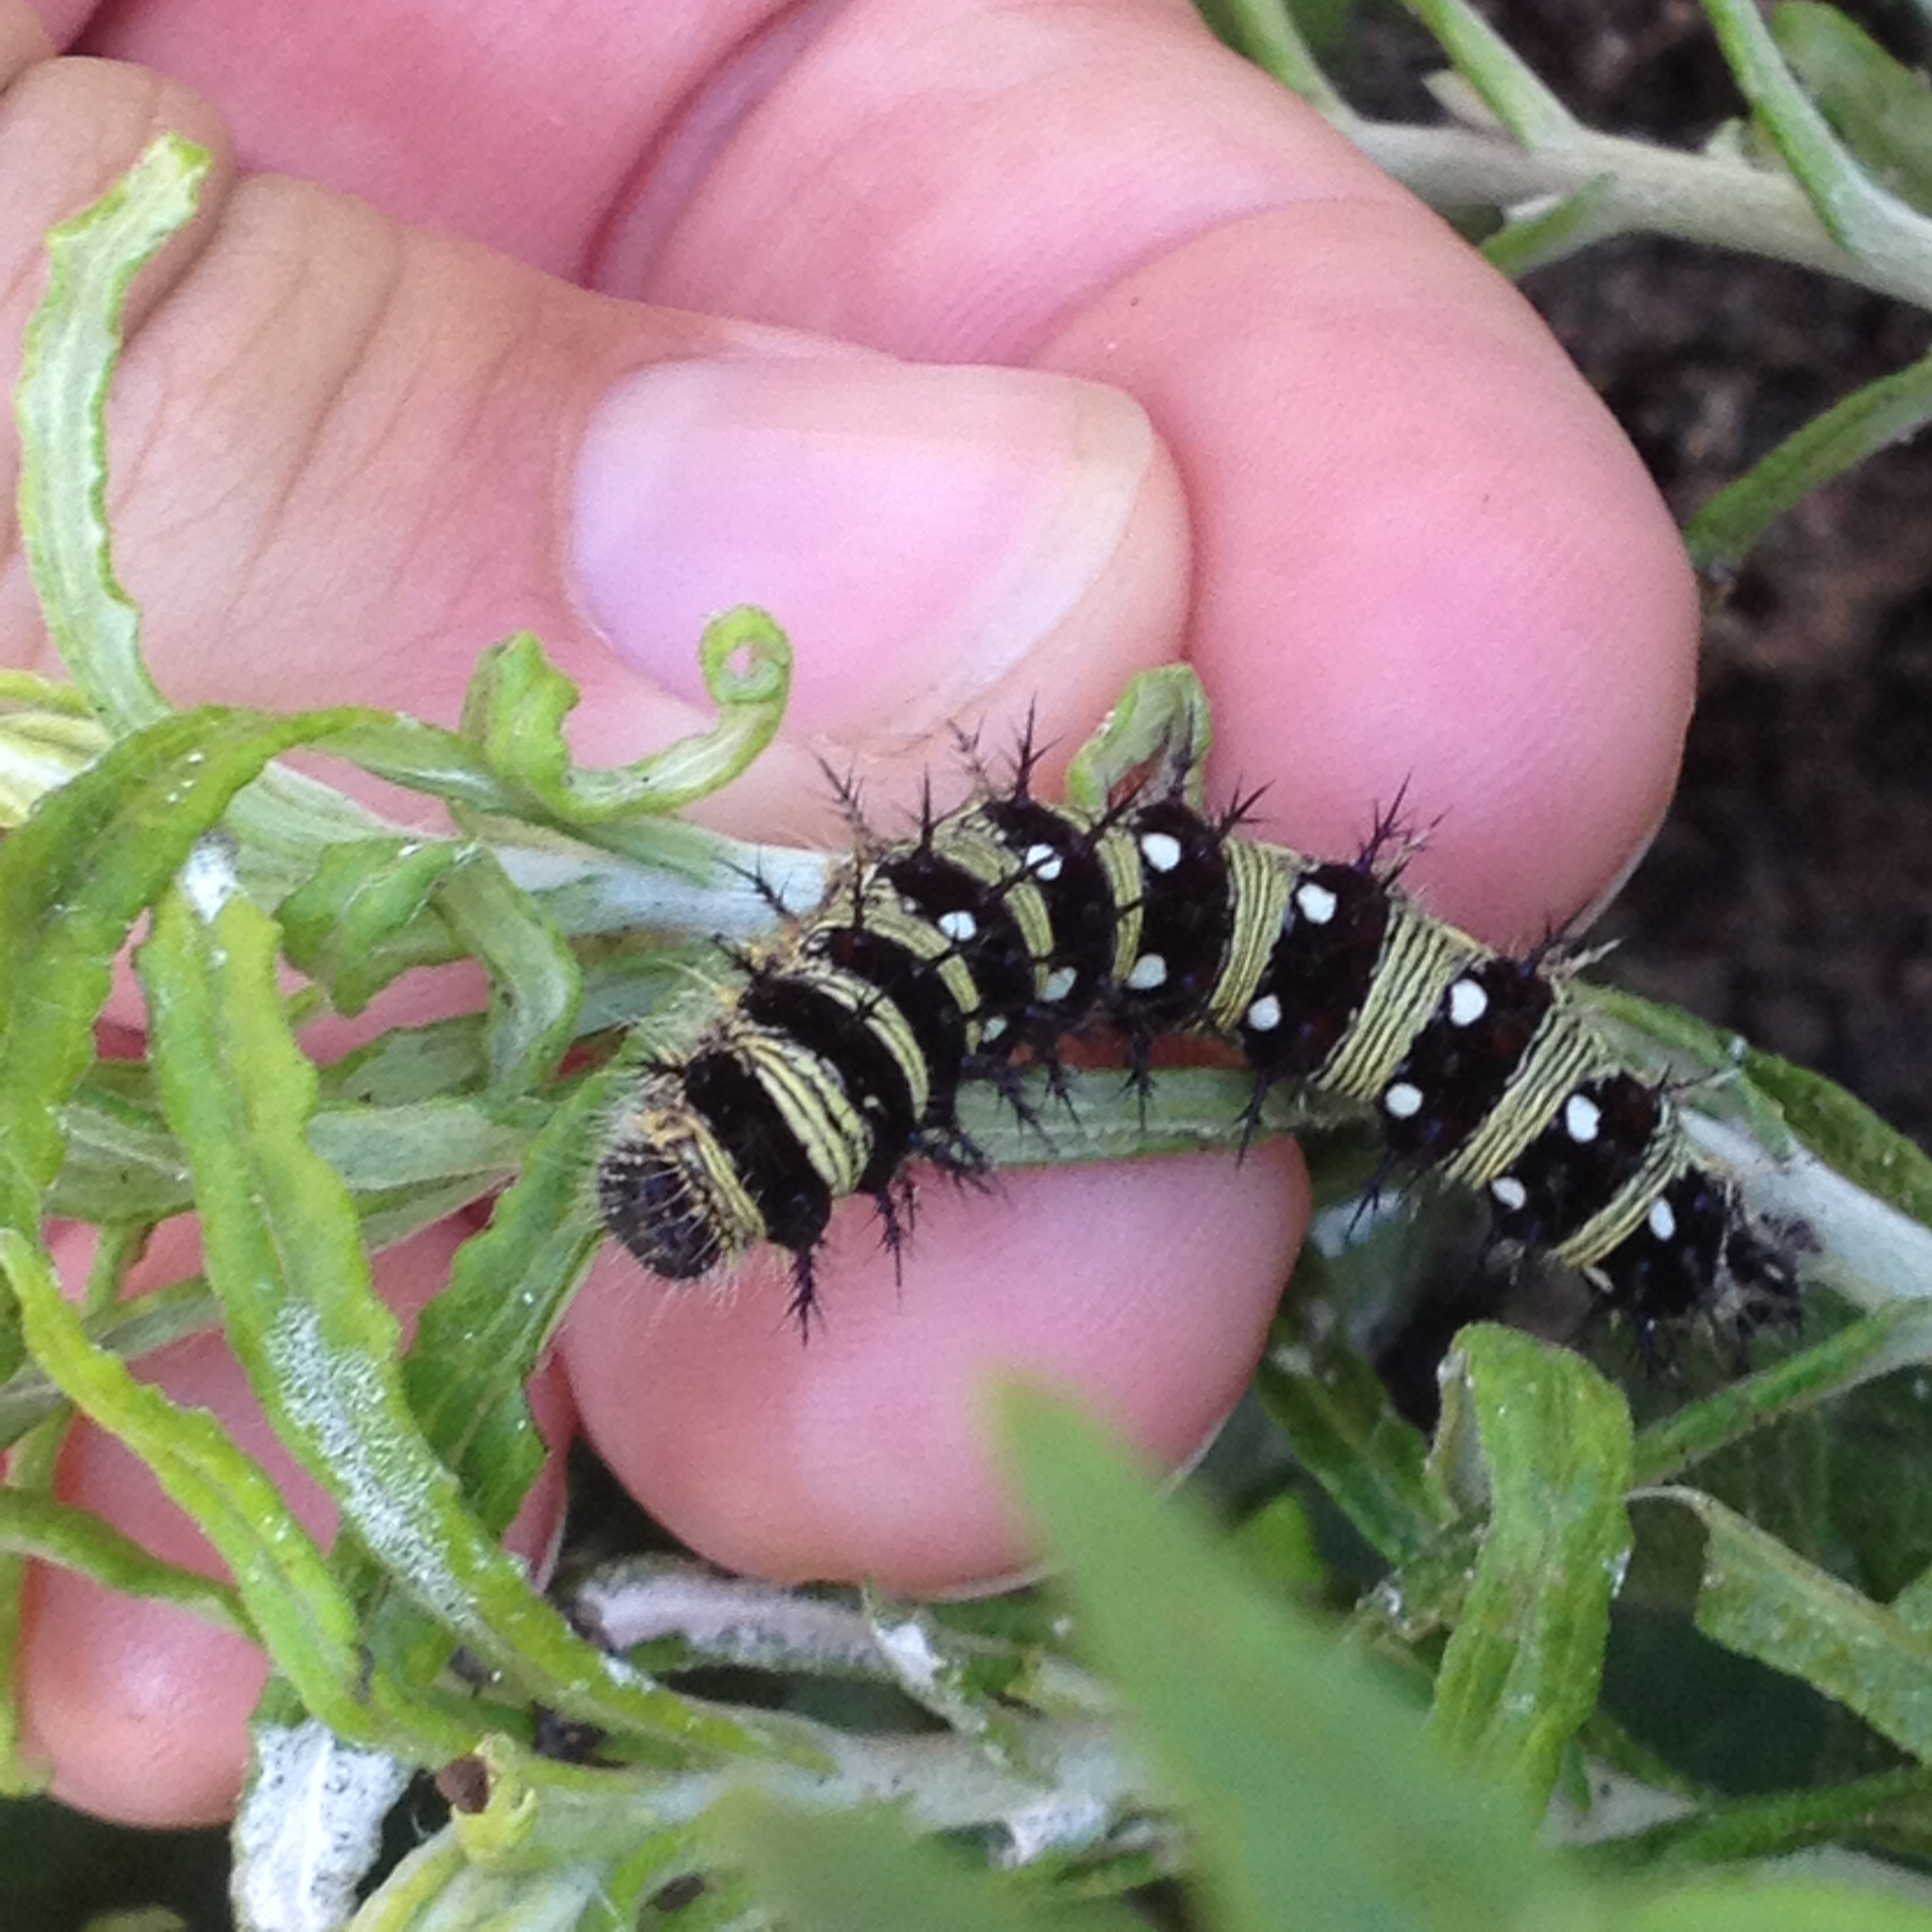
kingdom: Animalia
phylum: Arthropoda
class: Insecta
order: Lepidoptera
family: Nymphalidae
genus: Vanessa
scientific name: Vanessa virginiensis
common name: American lady
